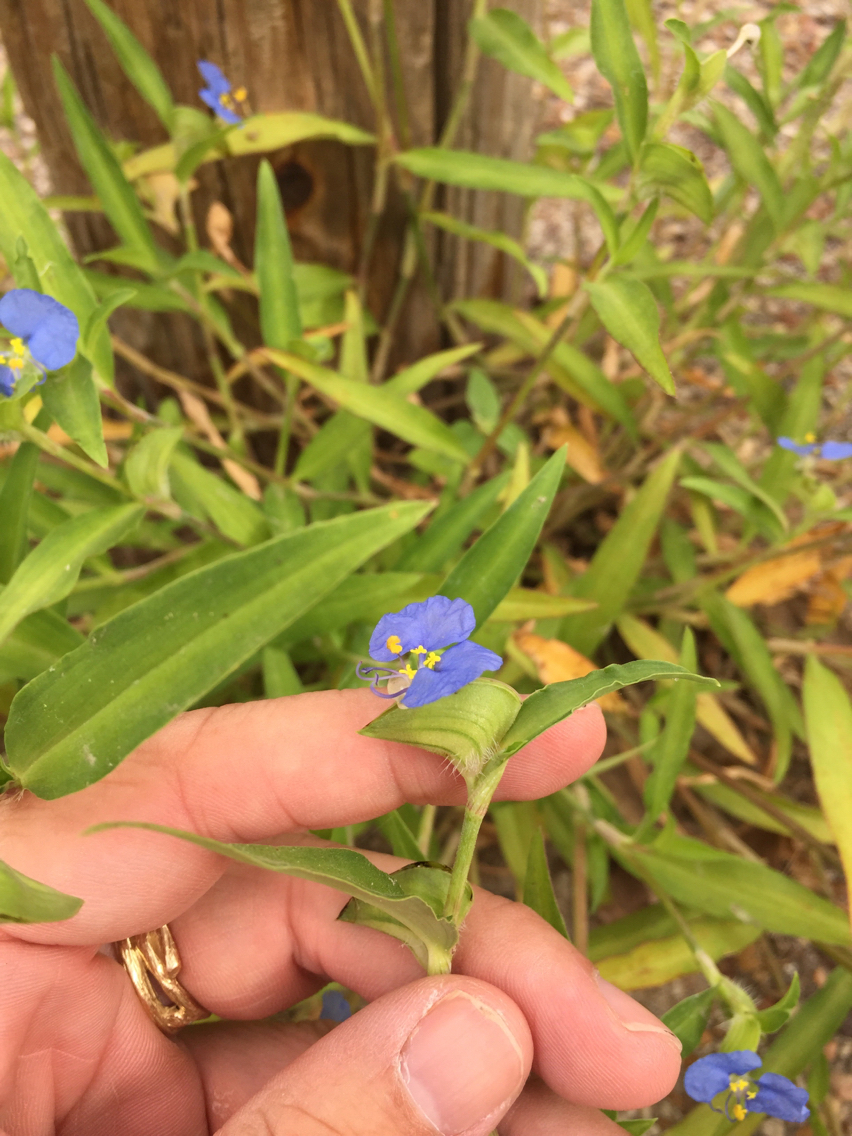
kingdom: Plantae
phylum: Tracheophyta
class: Liliopsida
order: Commelinales
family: Commelinaceae
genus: Commelina
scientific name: Commelina erecta
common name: Blousel blommetjie
